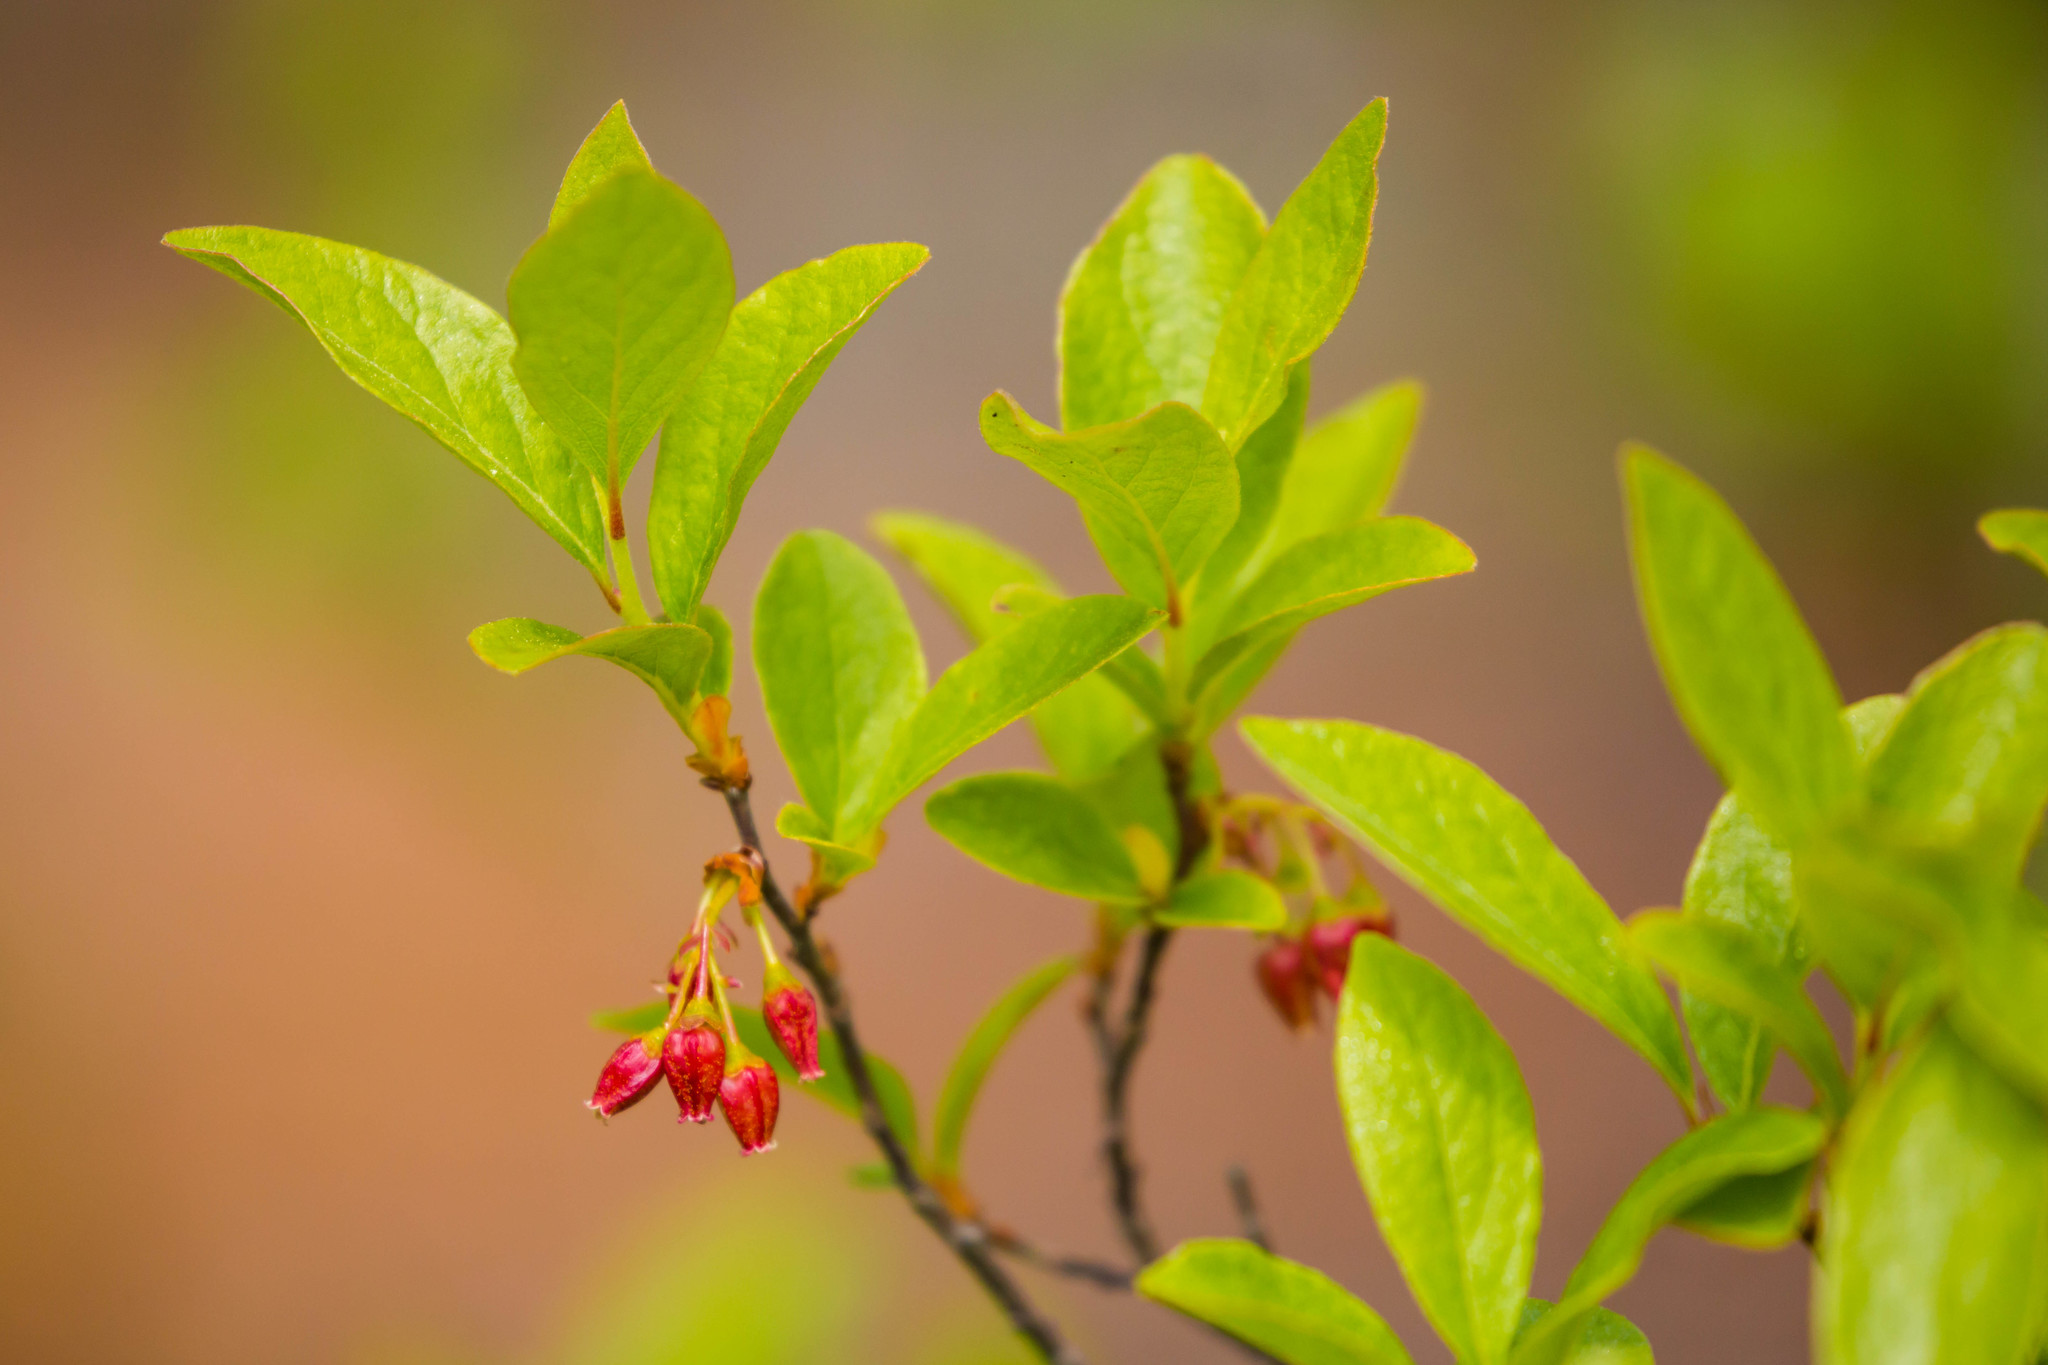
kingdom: Plantae
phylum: Tracheophyta
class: Magnoliopsida
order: Ericales
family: Ericaceae
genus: Gaylussacia
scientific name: Gaylussacia baccata
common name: Black huckleberry
